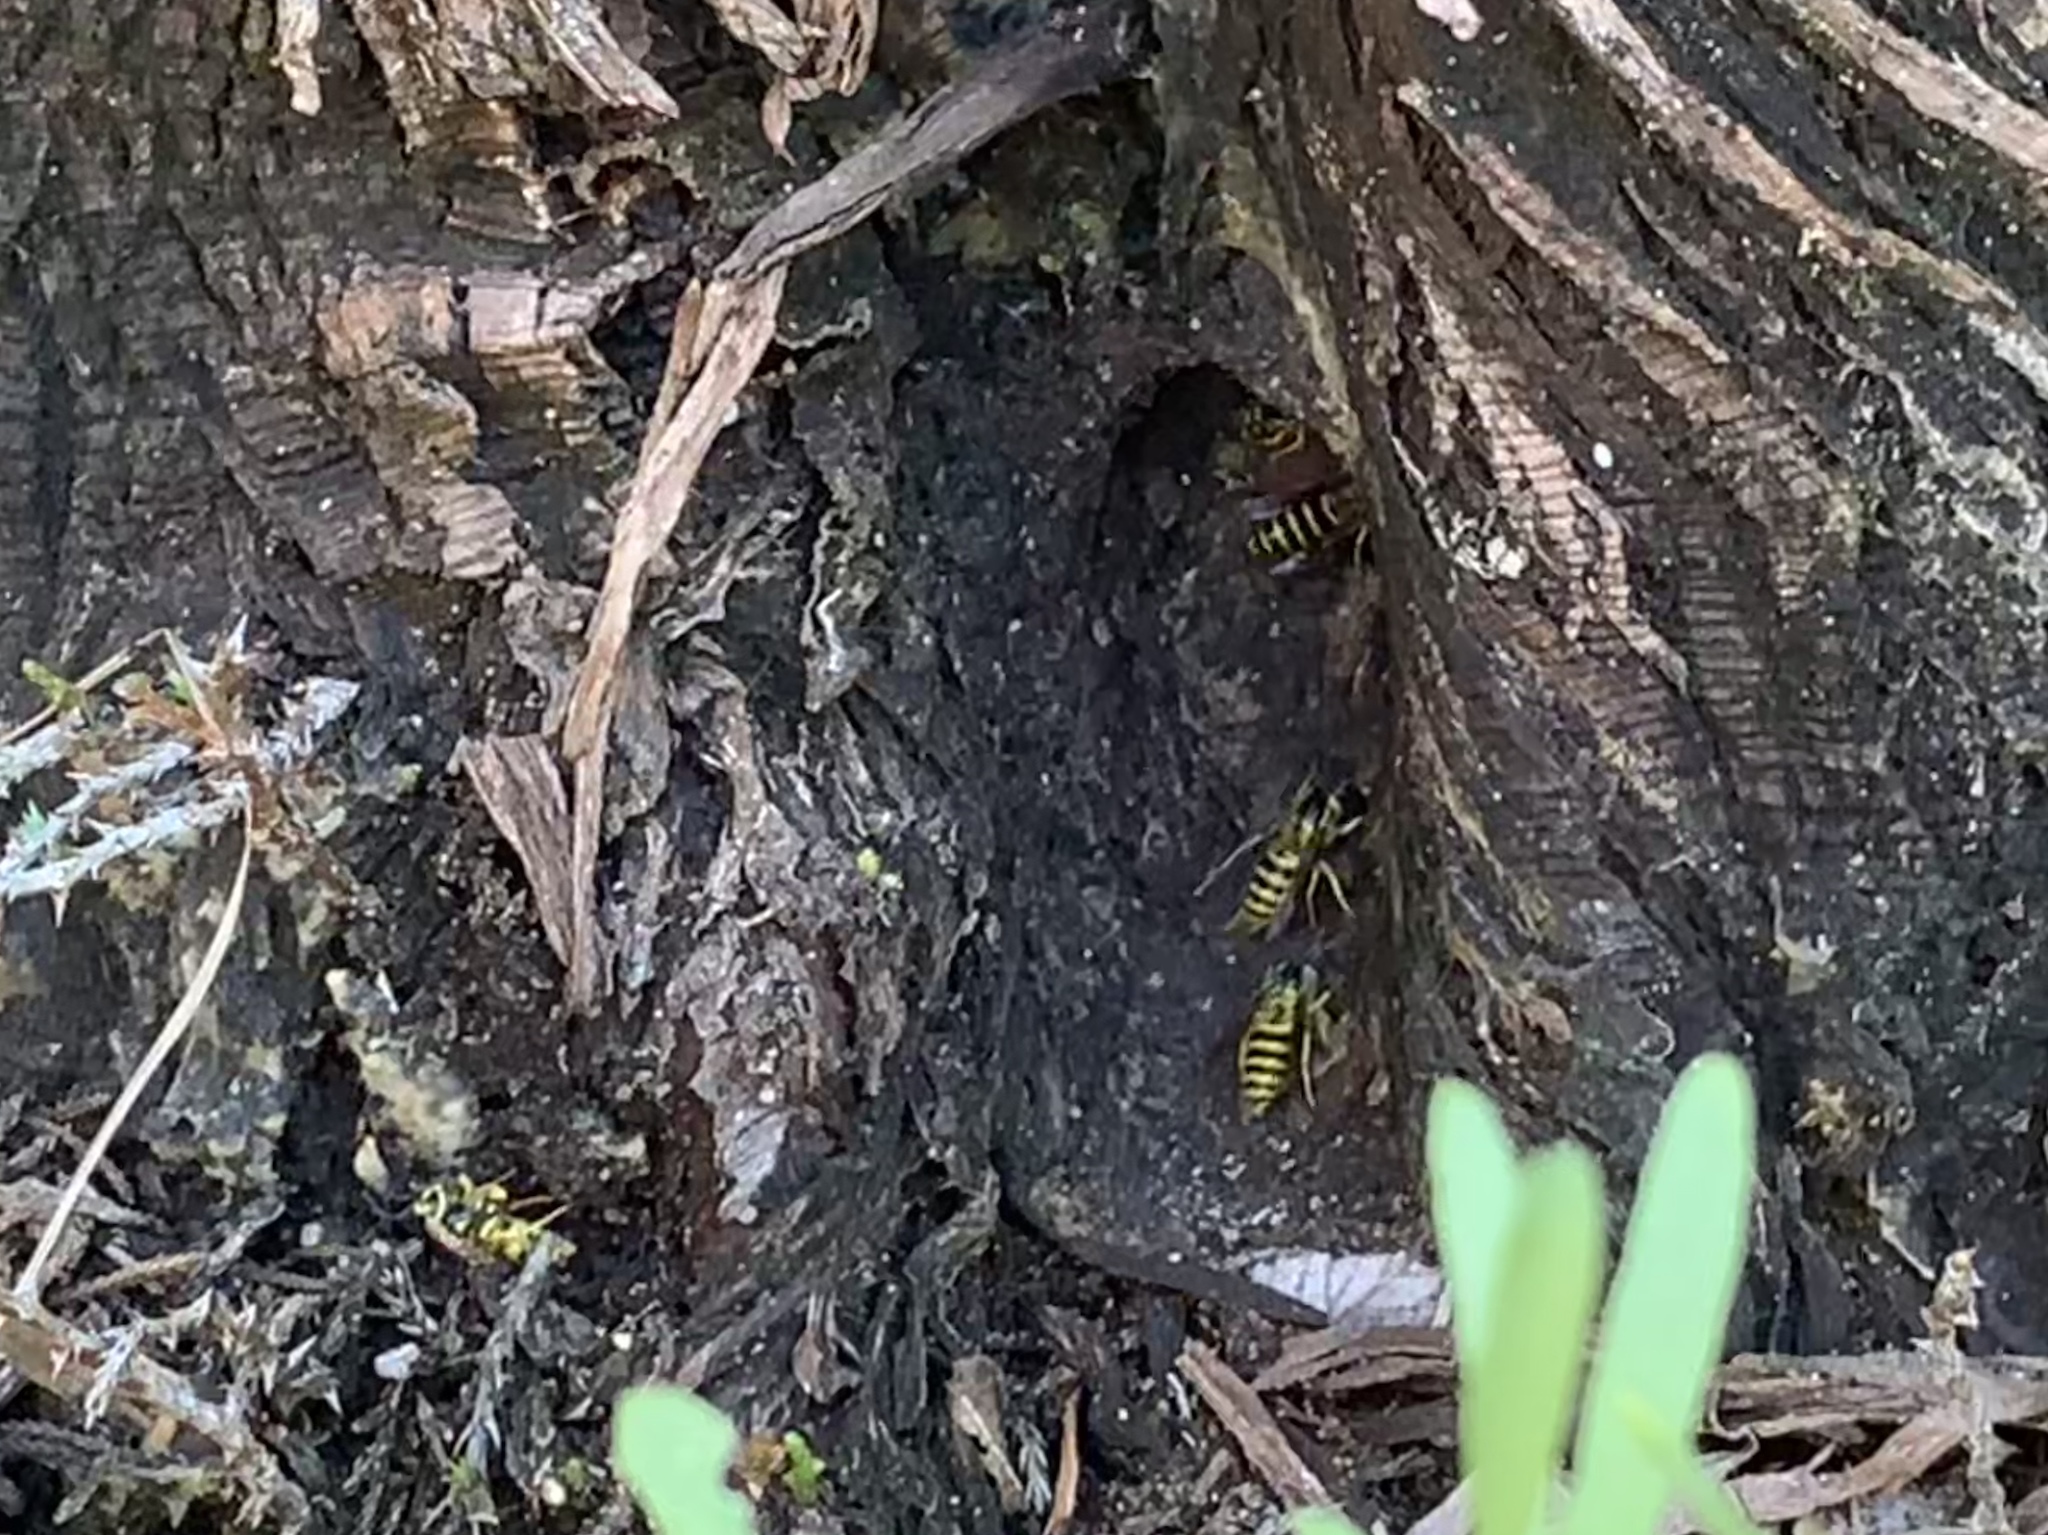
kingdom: Animalia
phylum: Arthropoda
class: Insecta
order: Hymenoptera
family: Vespidae
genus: Vespula
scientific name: Vespula maculifrons
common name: Eastern yellowjacket
